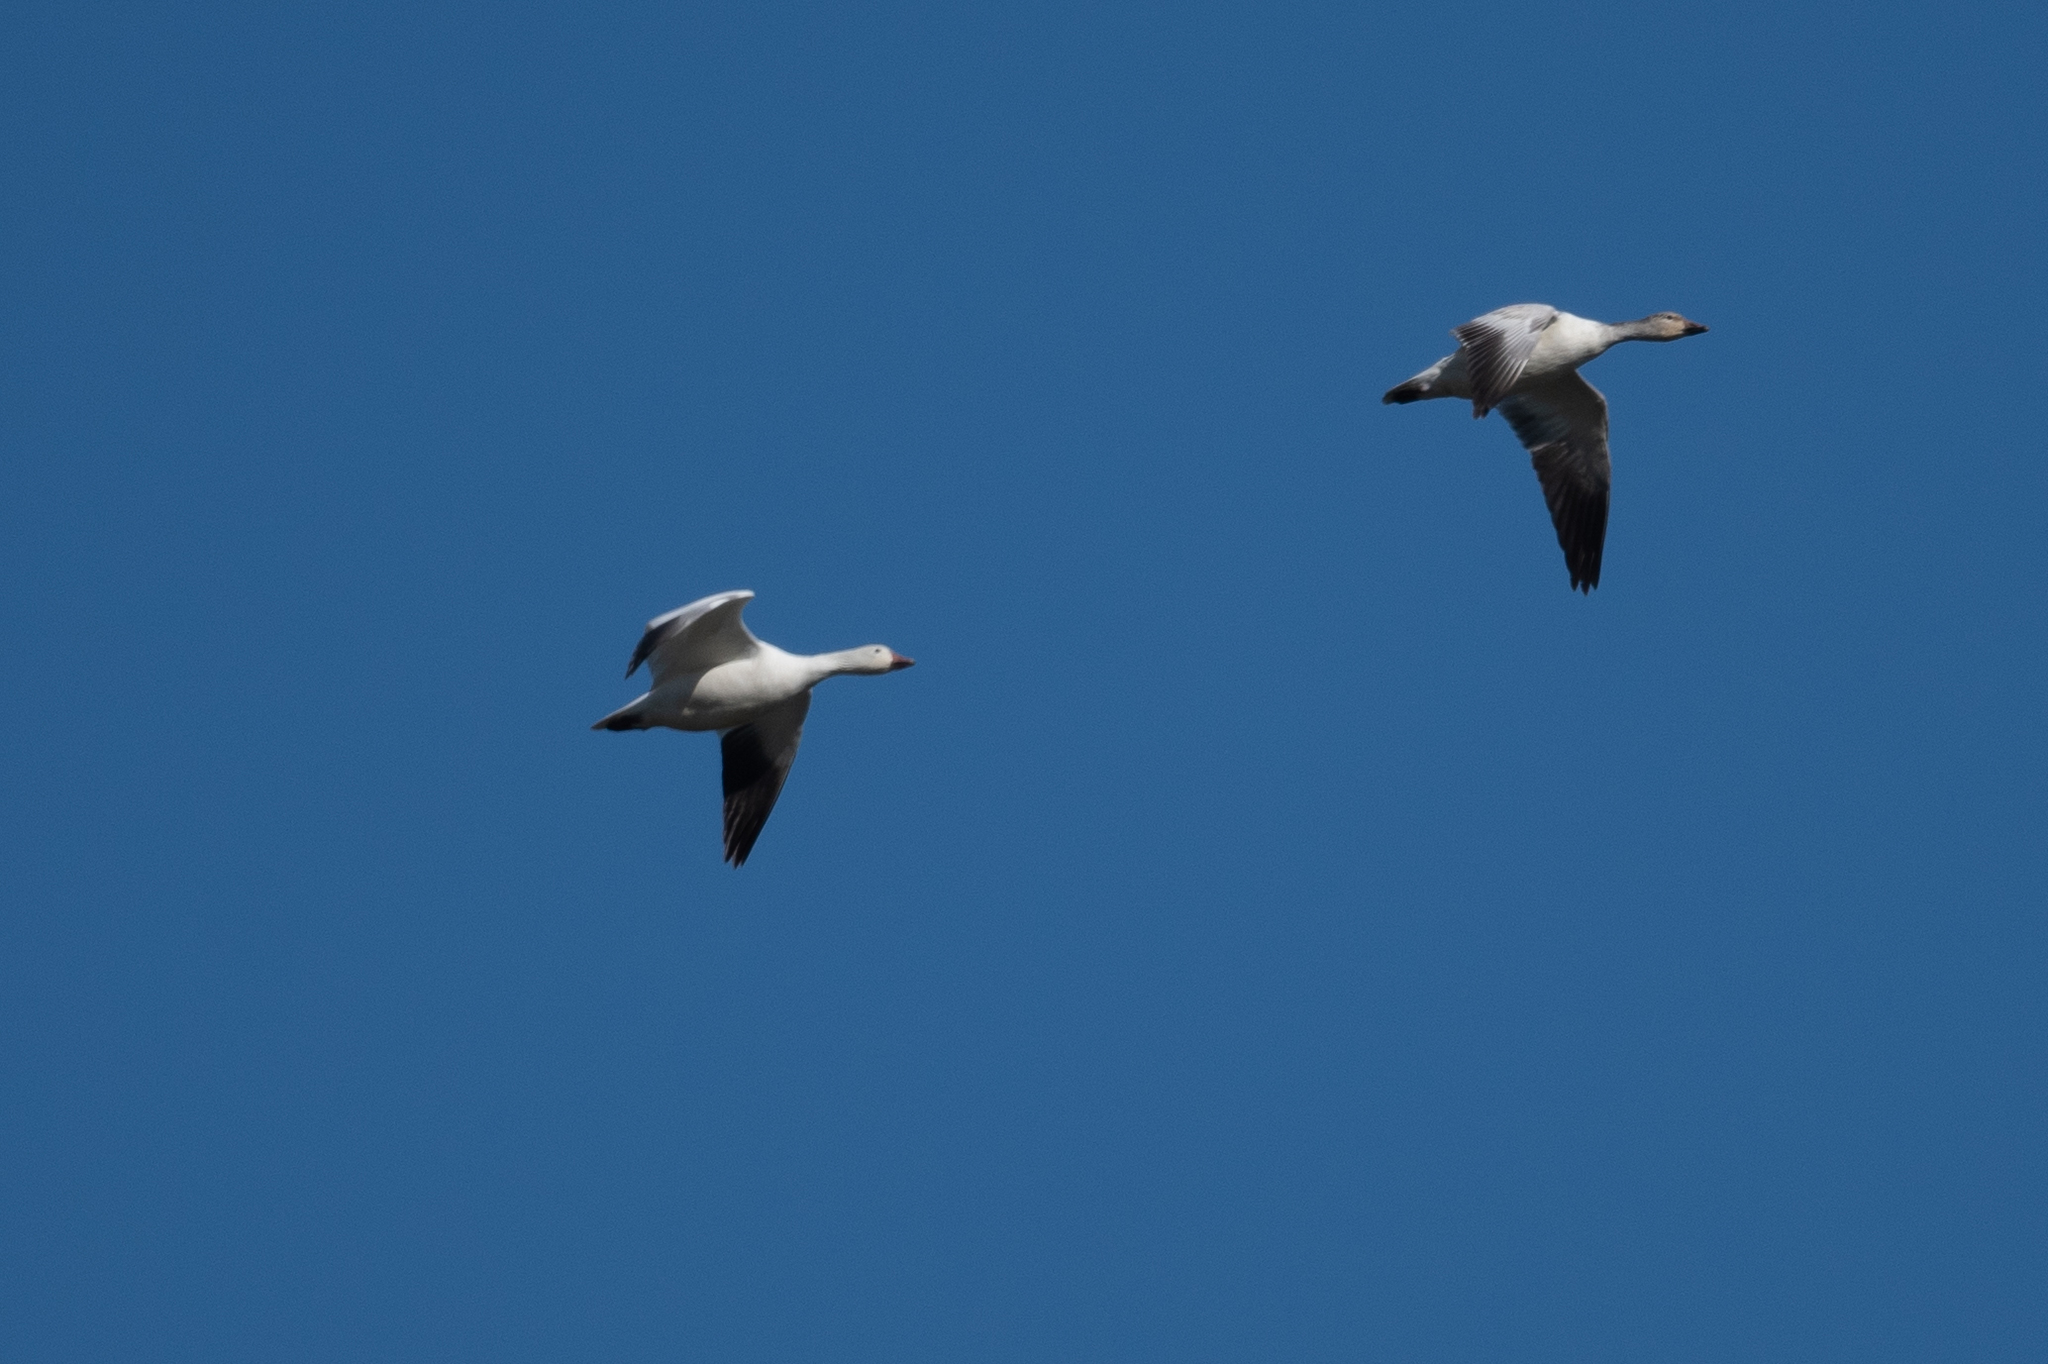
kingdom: Animalia
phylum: Chordata
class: Aves
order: Anseriformes
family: Anatidae
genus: Anser
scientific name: Anser caerulescens
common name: Snow goose
